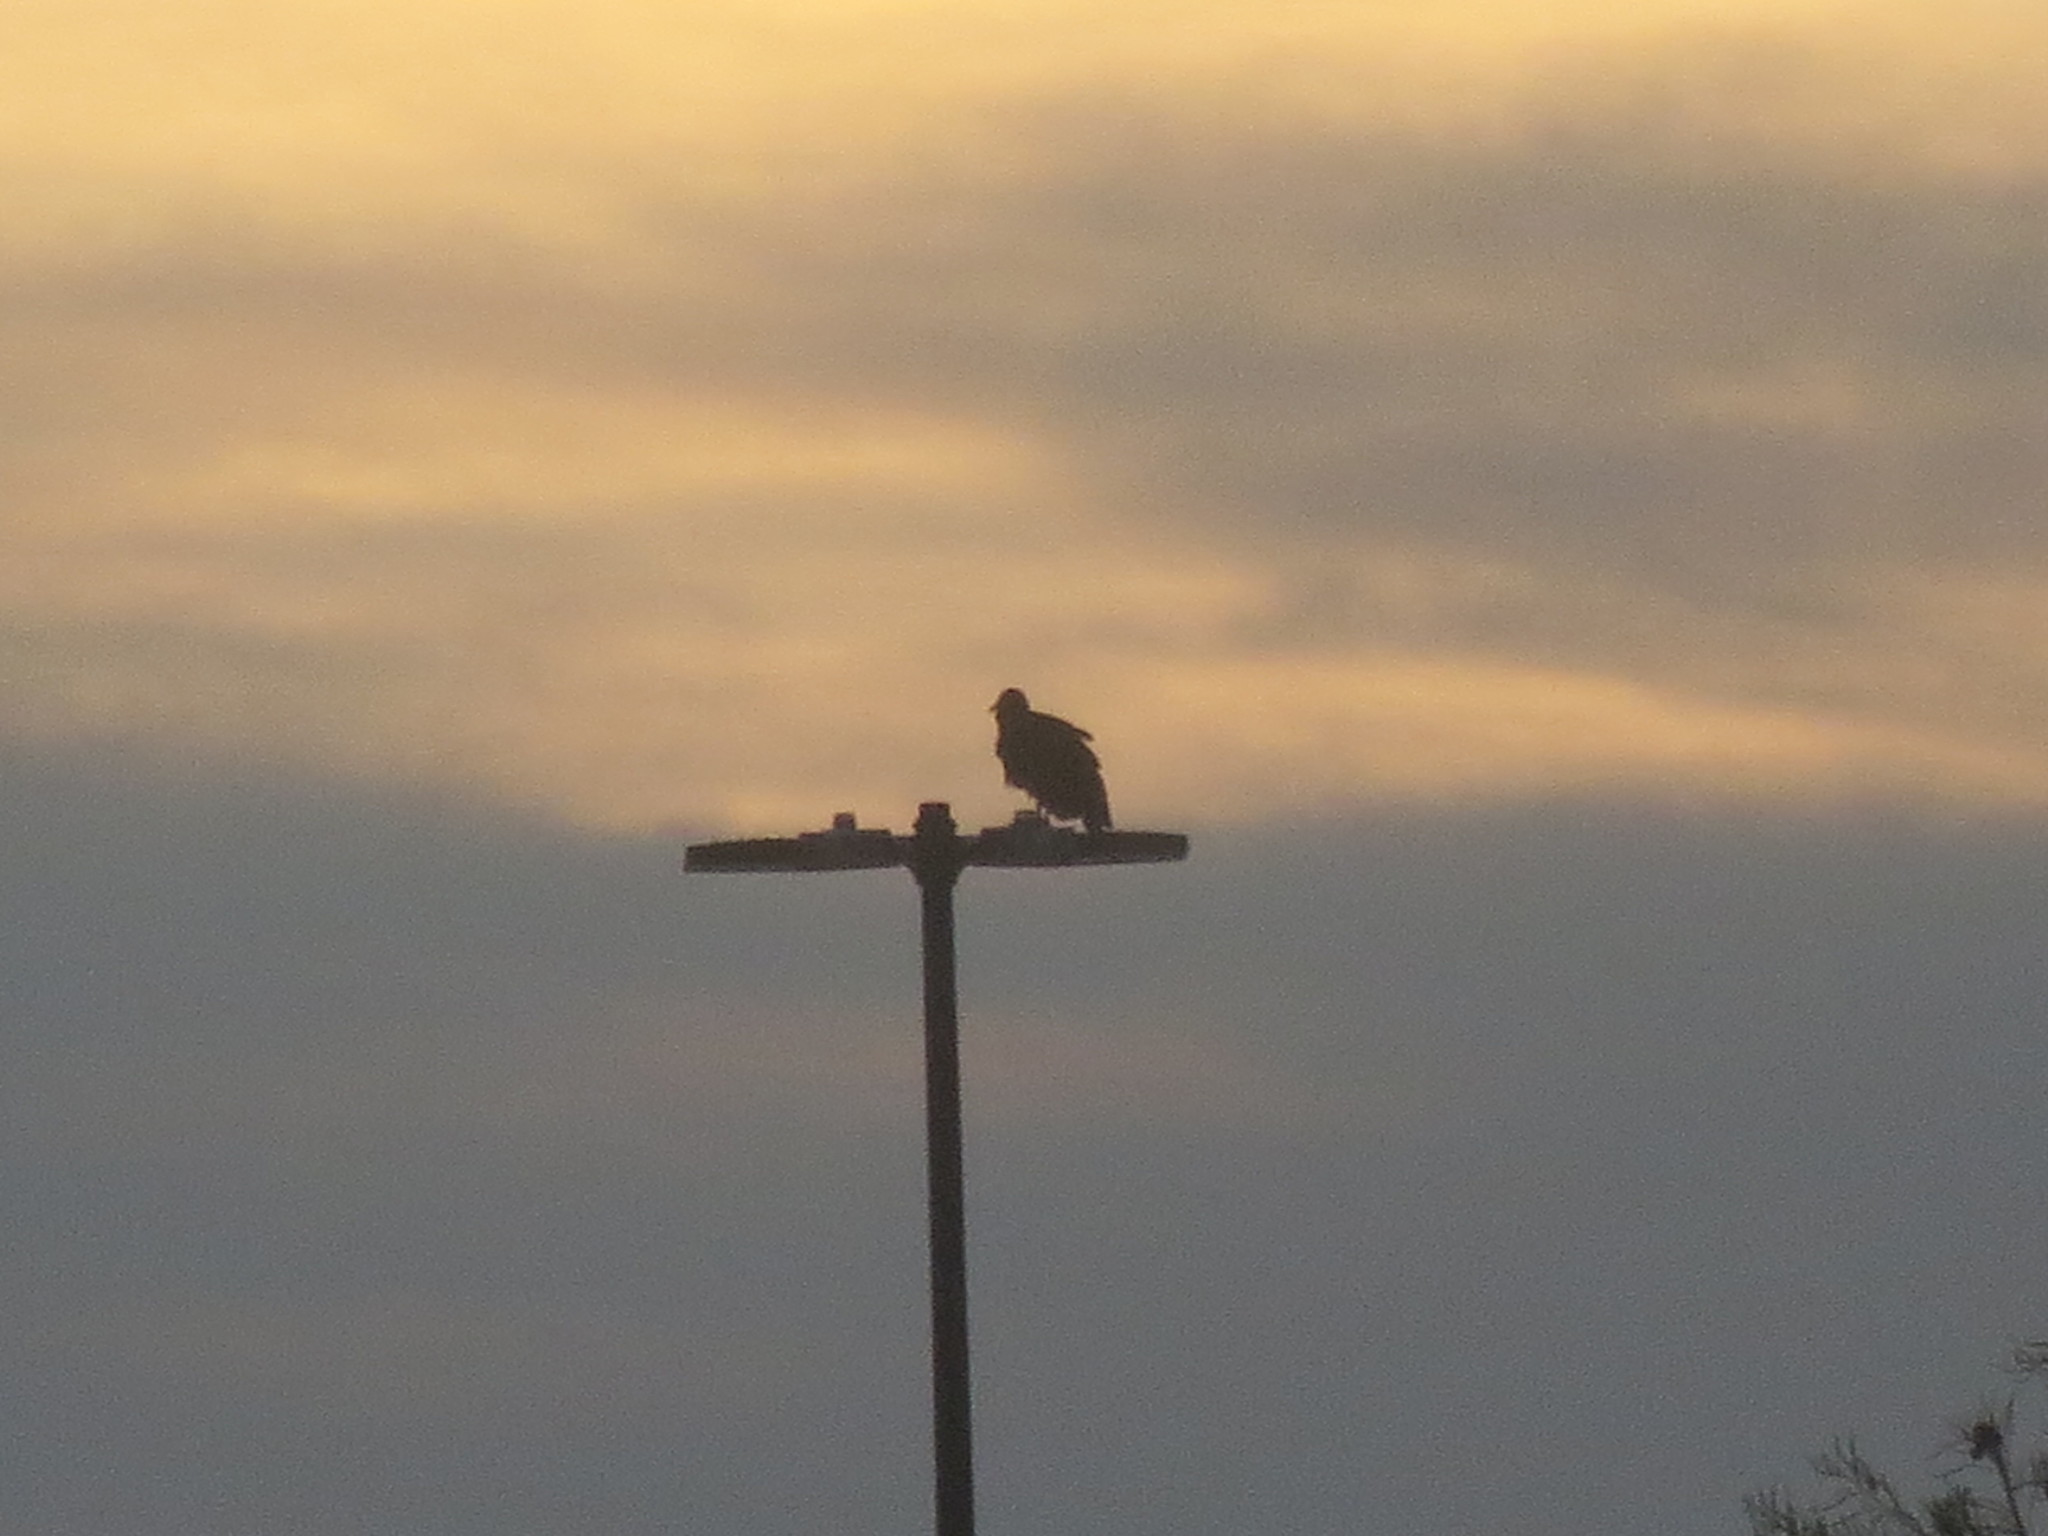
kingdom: Animalia
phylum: Chordata
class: Aves
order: Accipitriformes
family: Cathartidae
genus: Coragyps
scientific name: Coragyps atratus
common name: Black vulture
